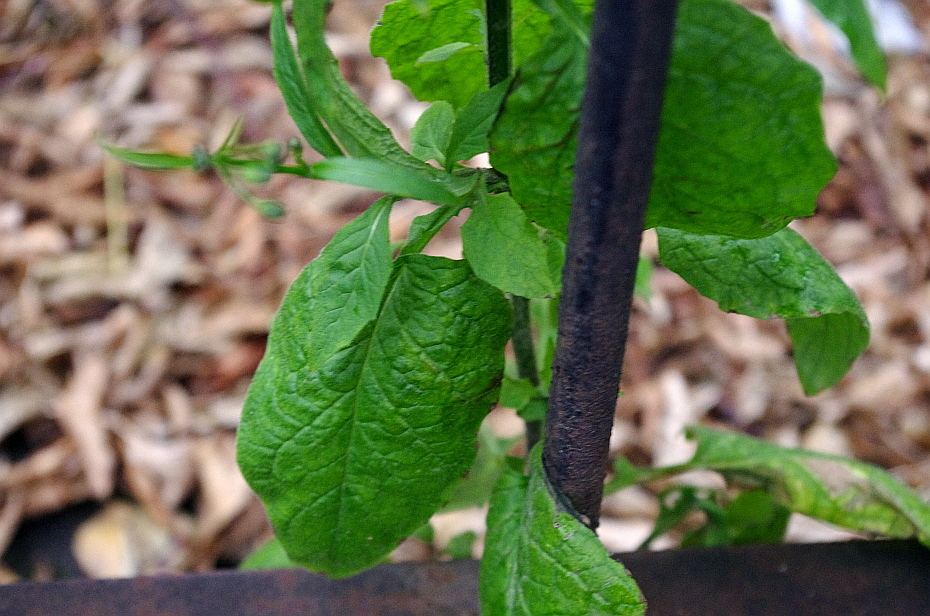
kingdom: Plantae
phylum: Tracheophyta
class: Magnoliopsida
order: Asterales
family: Asteraceae
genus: Lapsana
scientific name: Lapsana communis
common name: Nipplewort
